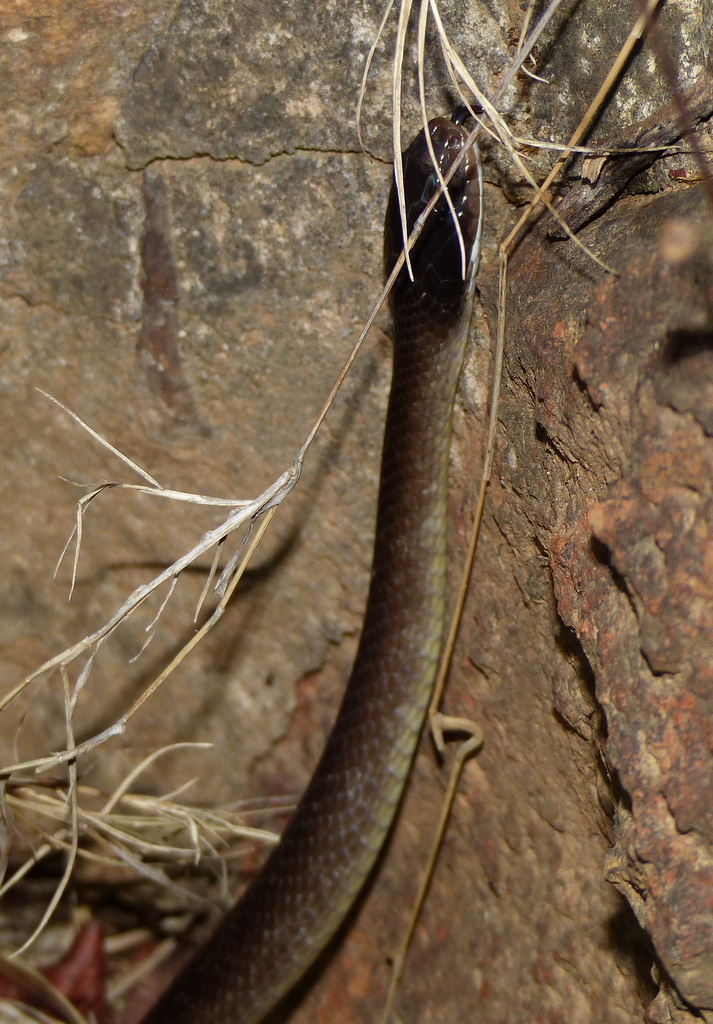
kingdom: Animalia
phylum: Chordata
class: Squamata
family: Colubridae
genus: Crotaphopeltis
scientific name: Crotaphopeltis hotamboeia
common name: Red-lipped snake
